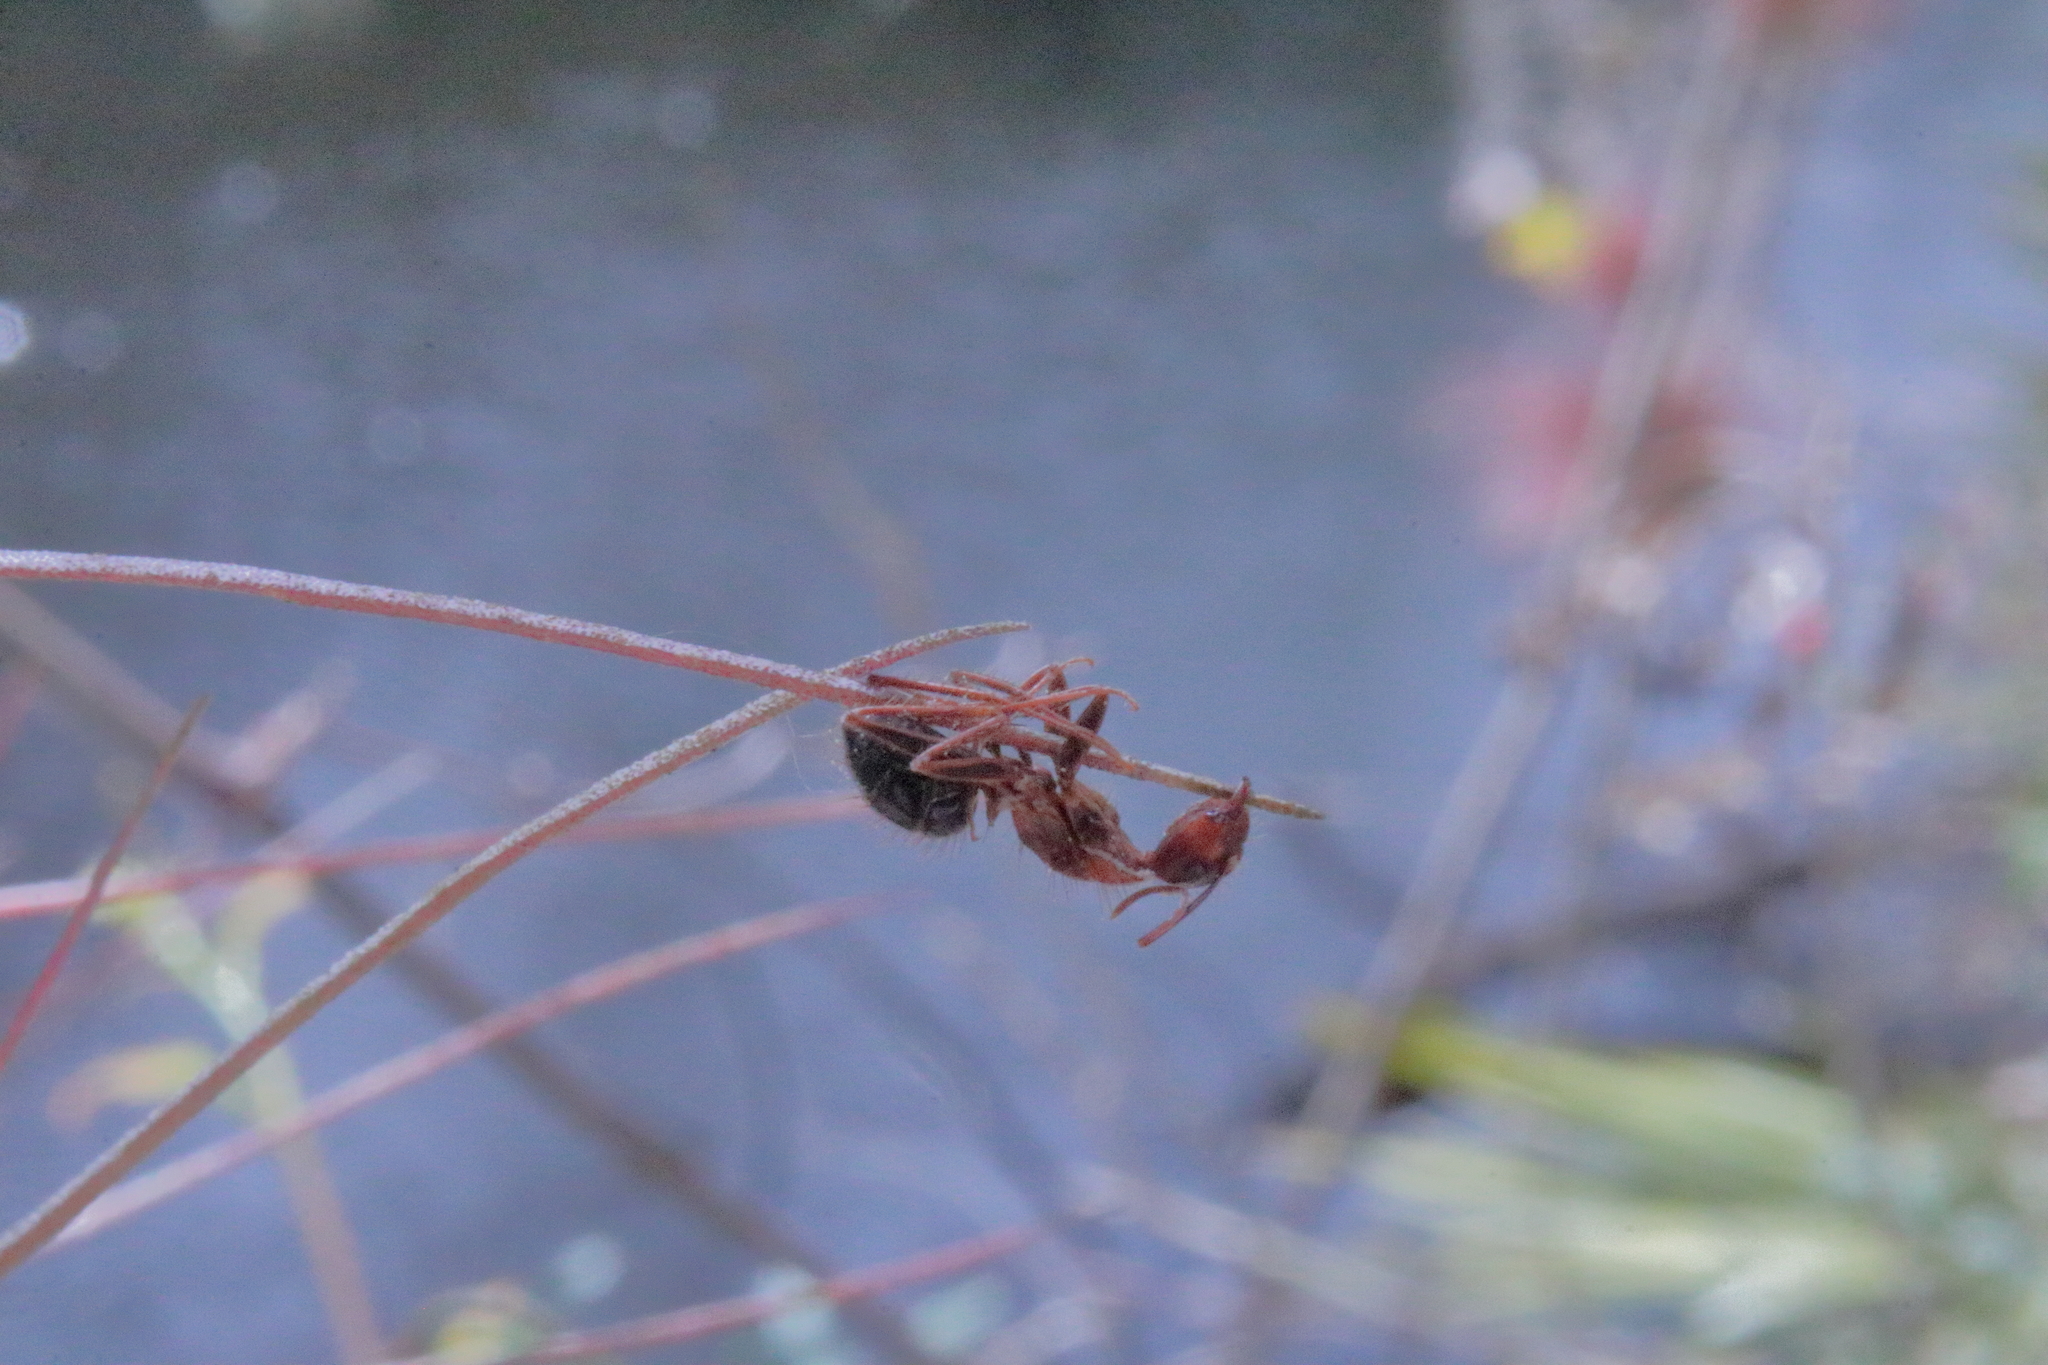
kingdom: Fungi
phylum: Ascomycota
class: Sordariomycetes
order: Hypocreales
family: Ophiocordycipitaceae
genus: Ophiocordyceps
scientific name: Ophiocordyceps camponoti-floridani
